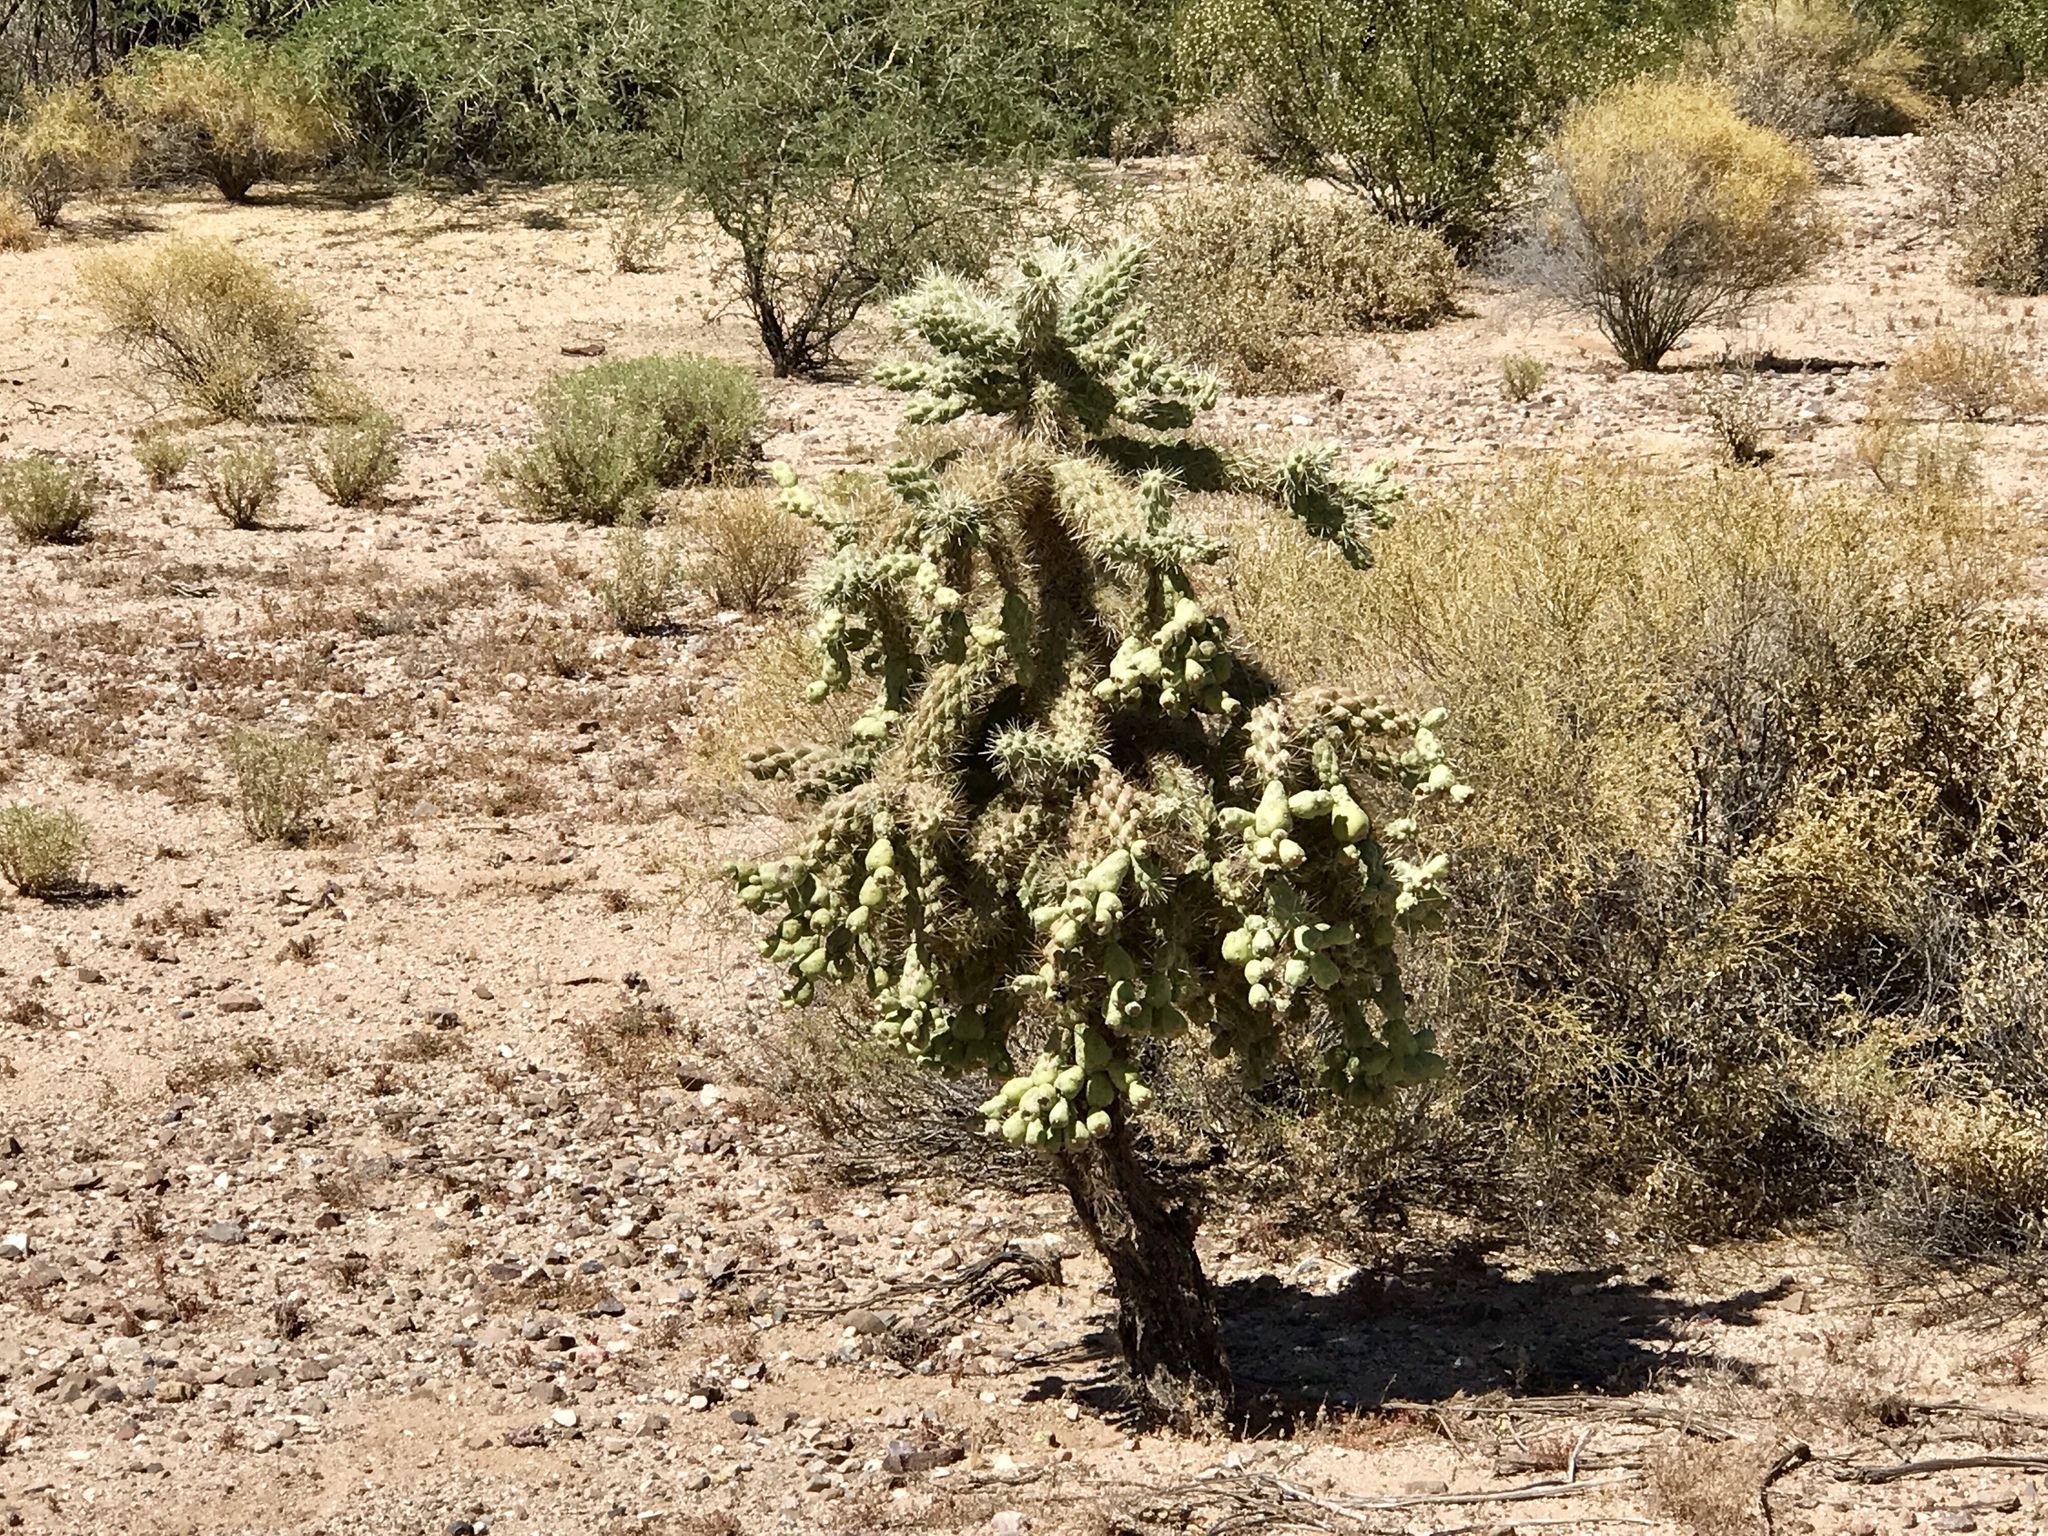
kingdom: Plantae
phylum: Tracheophyta
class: Magnoliopsida
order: Caryophyllales
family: Cactaceae
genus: Cylindropuntia
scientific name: Cylindropuntia fulgida
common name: Jumping cholla
